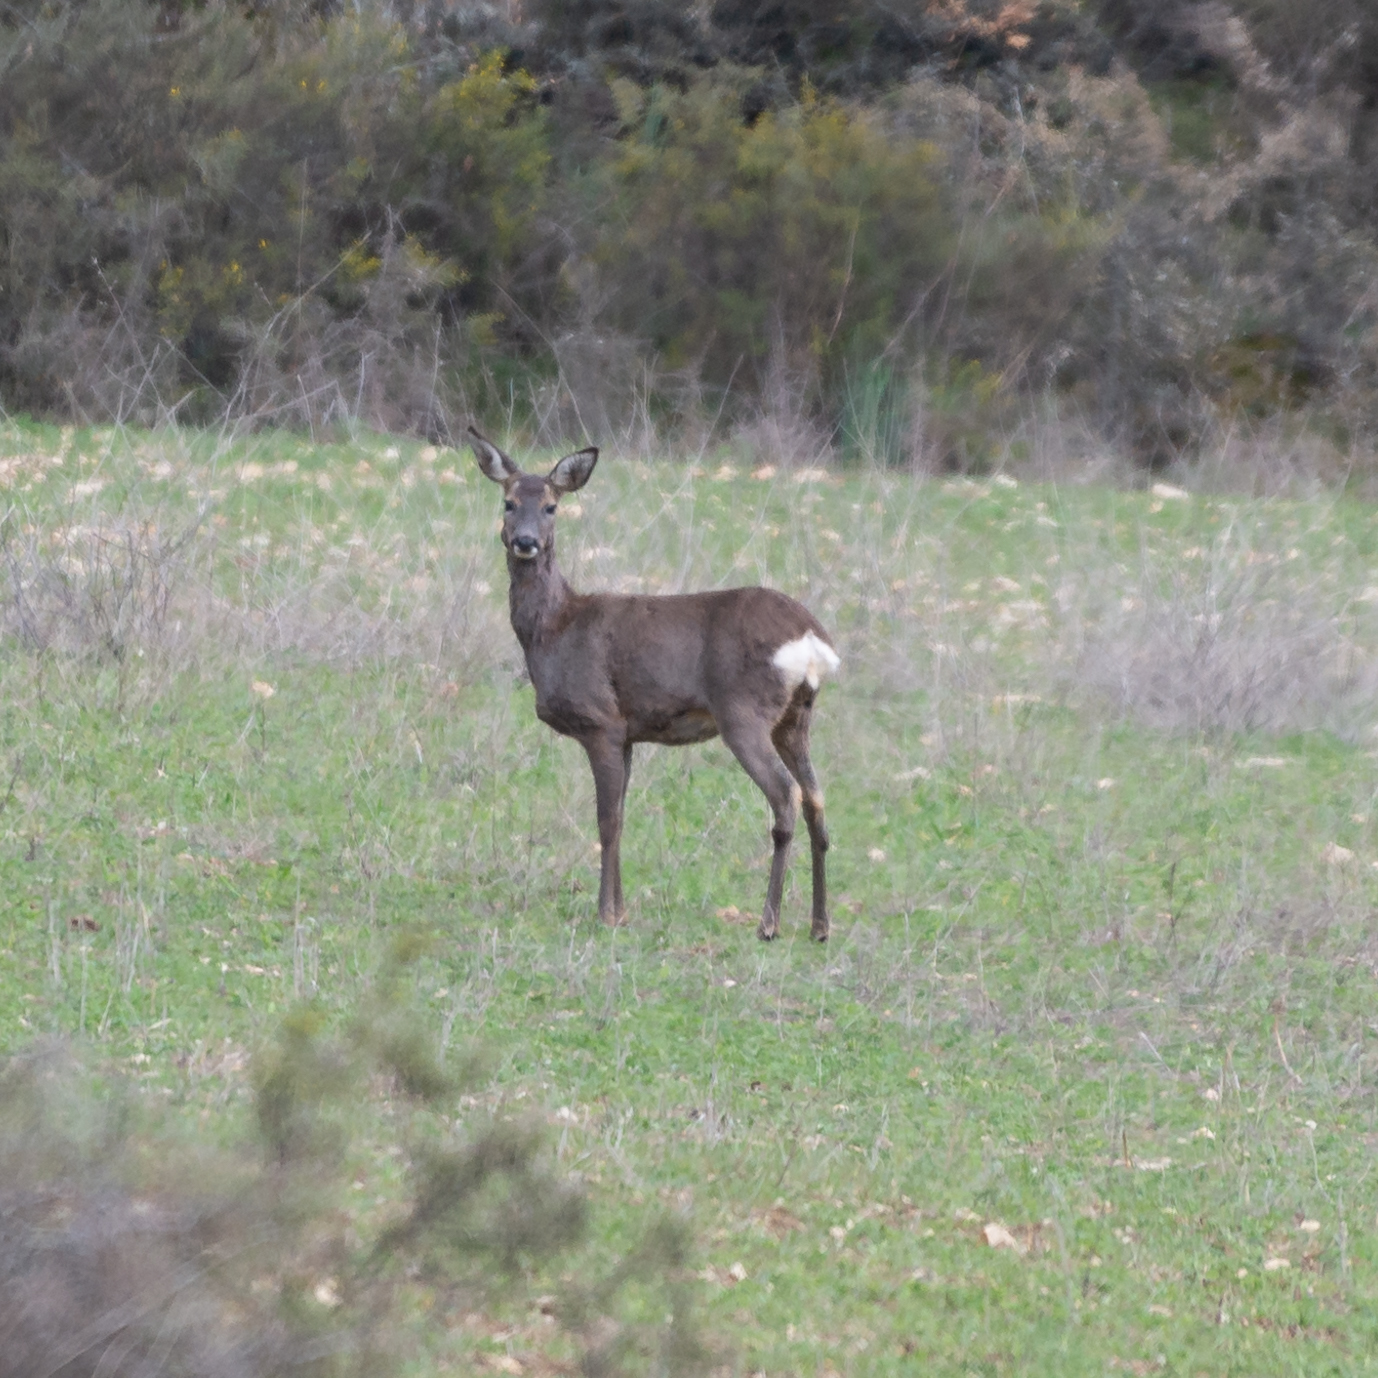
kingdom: Animalia
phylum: Chordata
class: Mammalia
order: Artiodactyla
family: Cervidae
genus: Capreolus
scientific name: Capreolus capreolus
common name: Western roe deer
